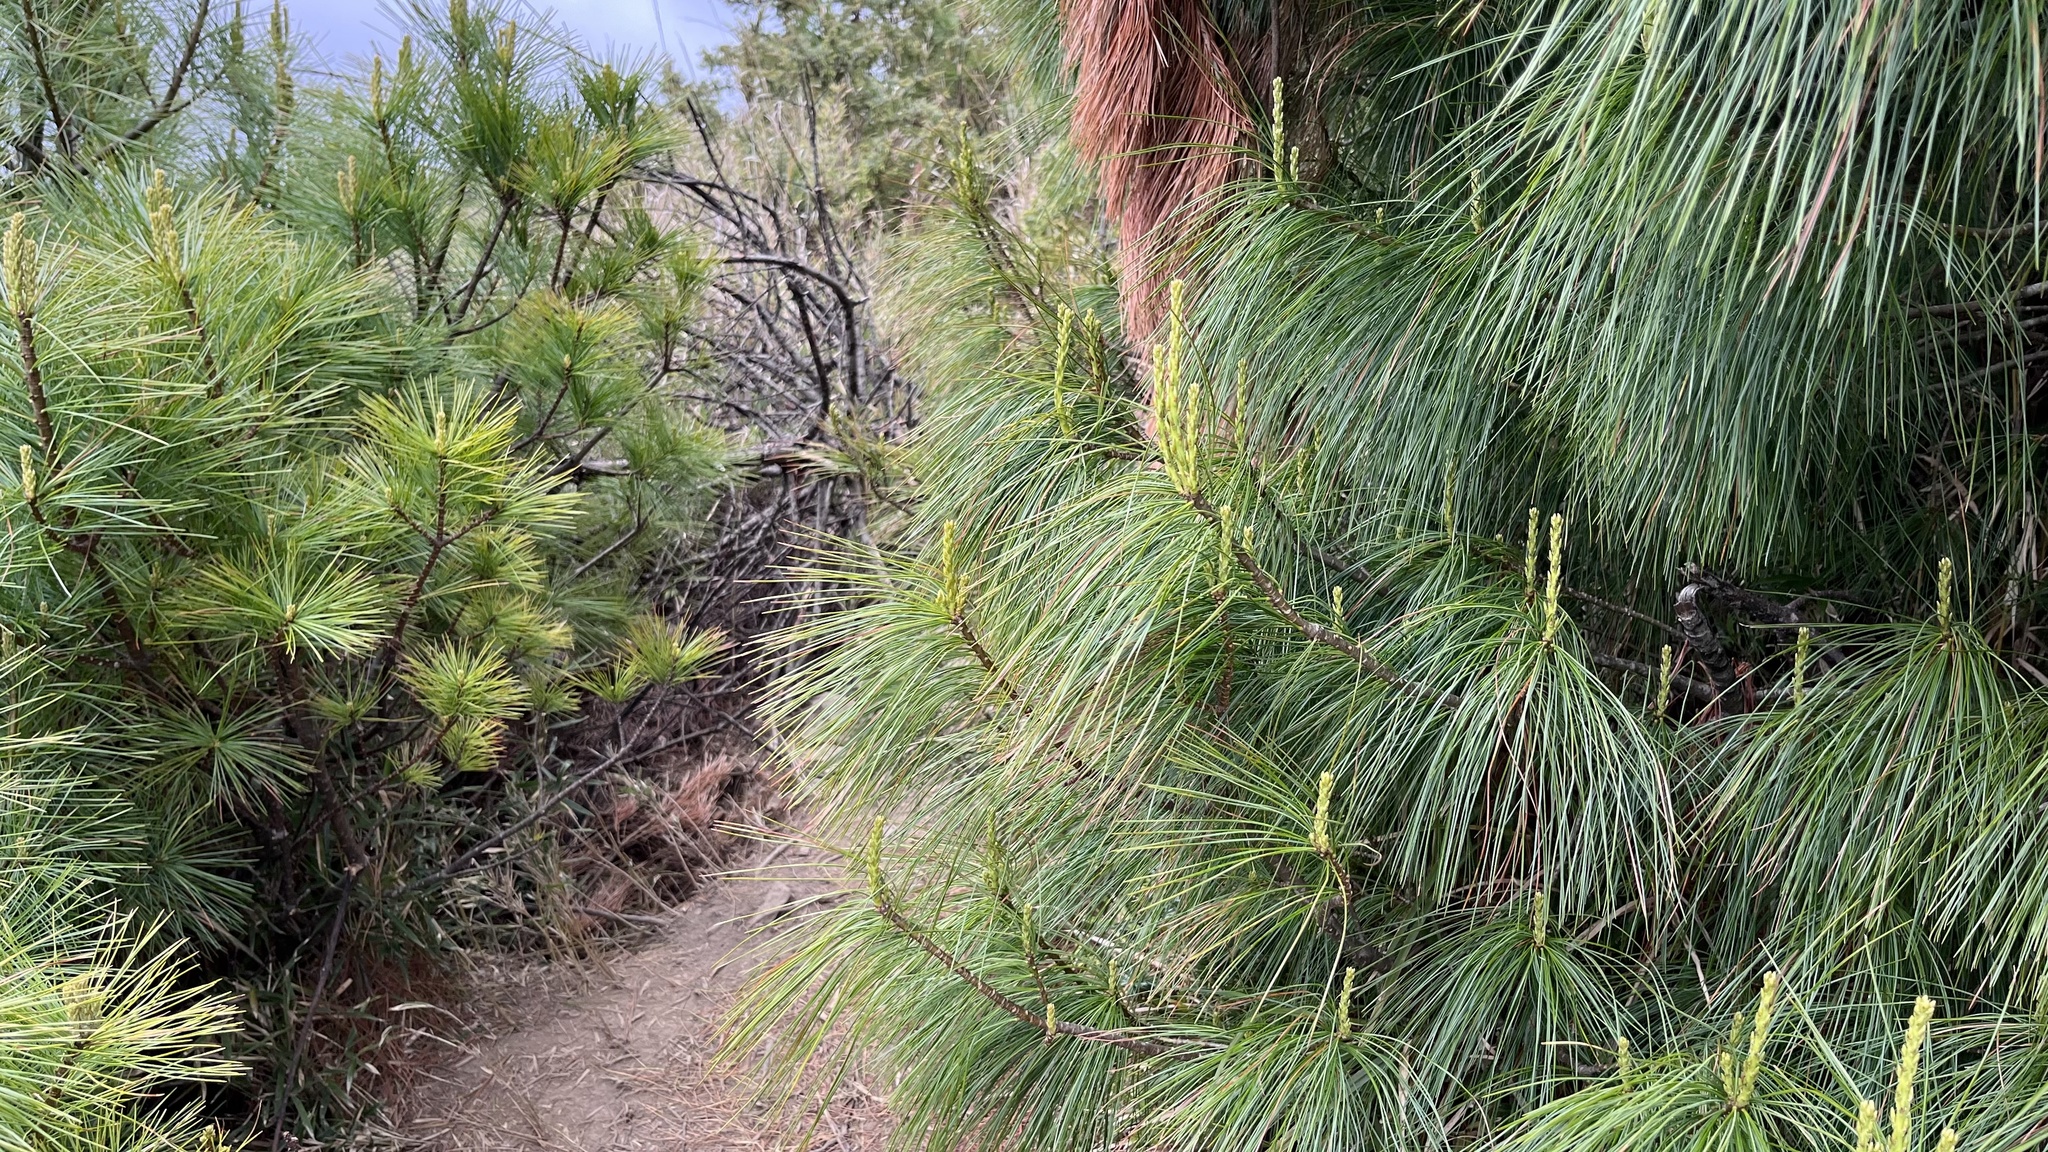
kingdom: Plantae
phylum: Tracheophyta
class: Pinopsida
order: Pinales
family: Pinaceae
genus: Pinus
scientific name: Pinus armandii
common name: Armand's pine
